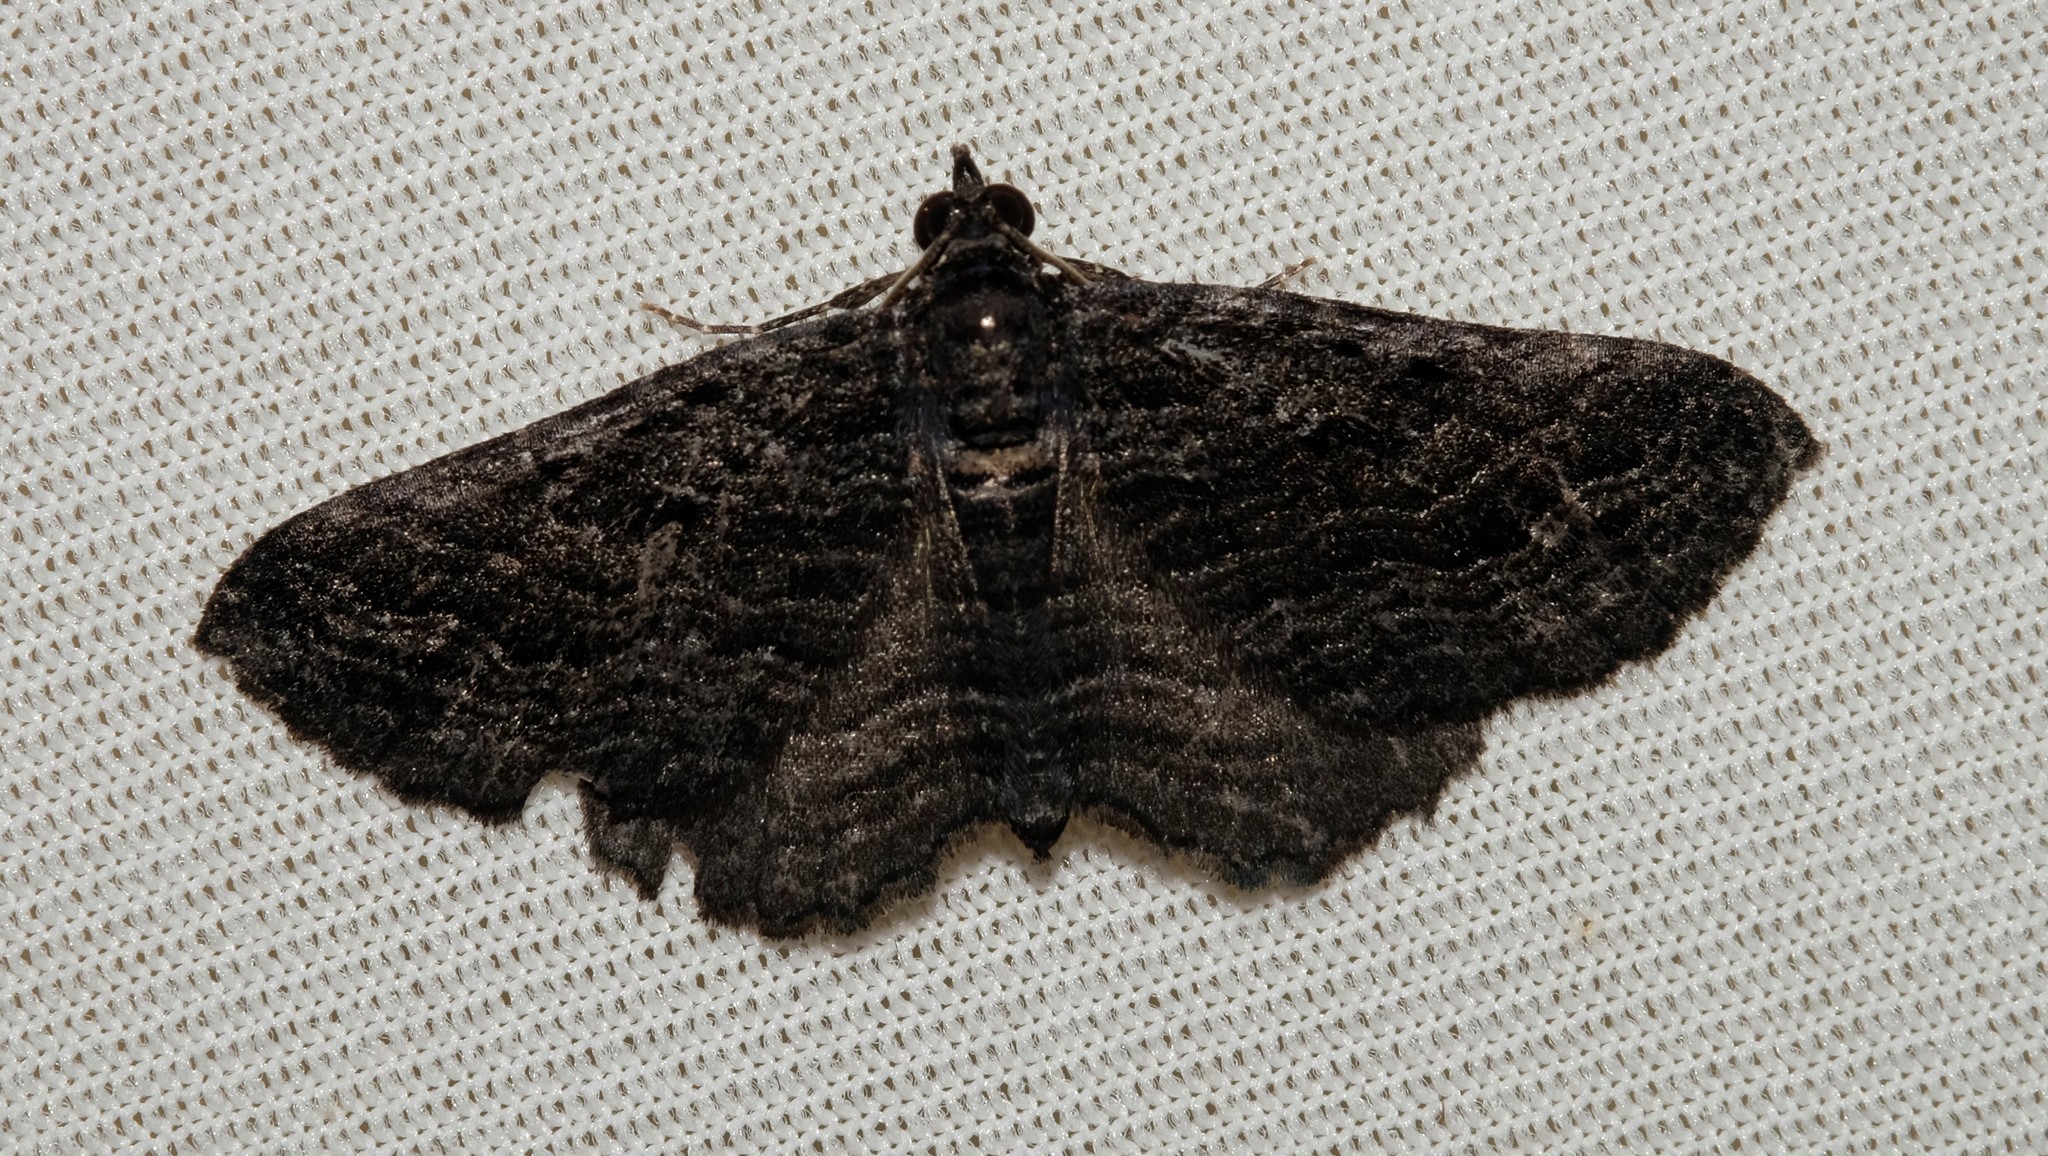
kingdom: Animalia
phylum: Arthropoda
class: Insecta
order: Lepidoptera
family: Geometridae
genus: Chrysolarentia
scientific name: Chrysolarentia severata
